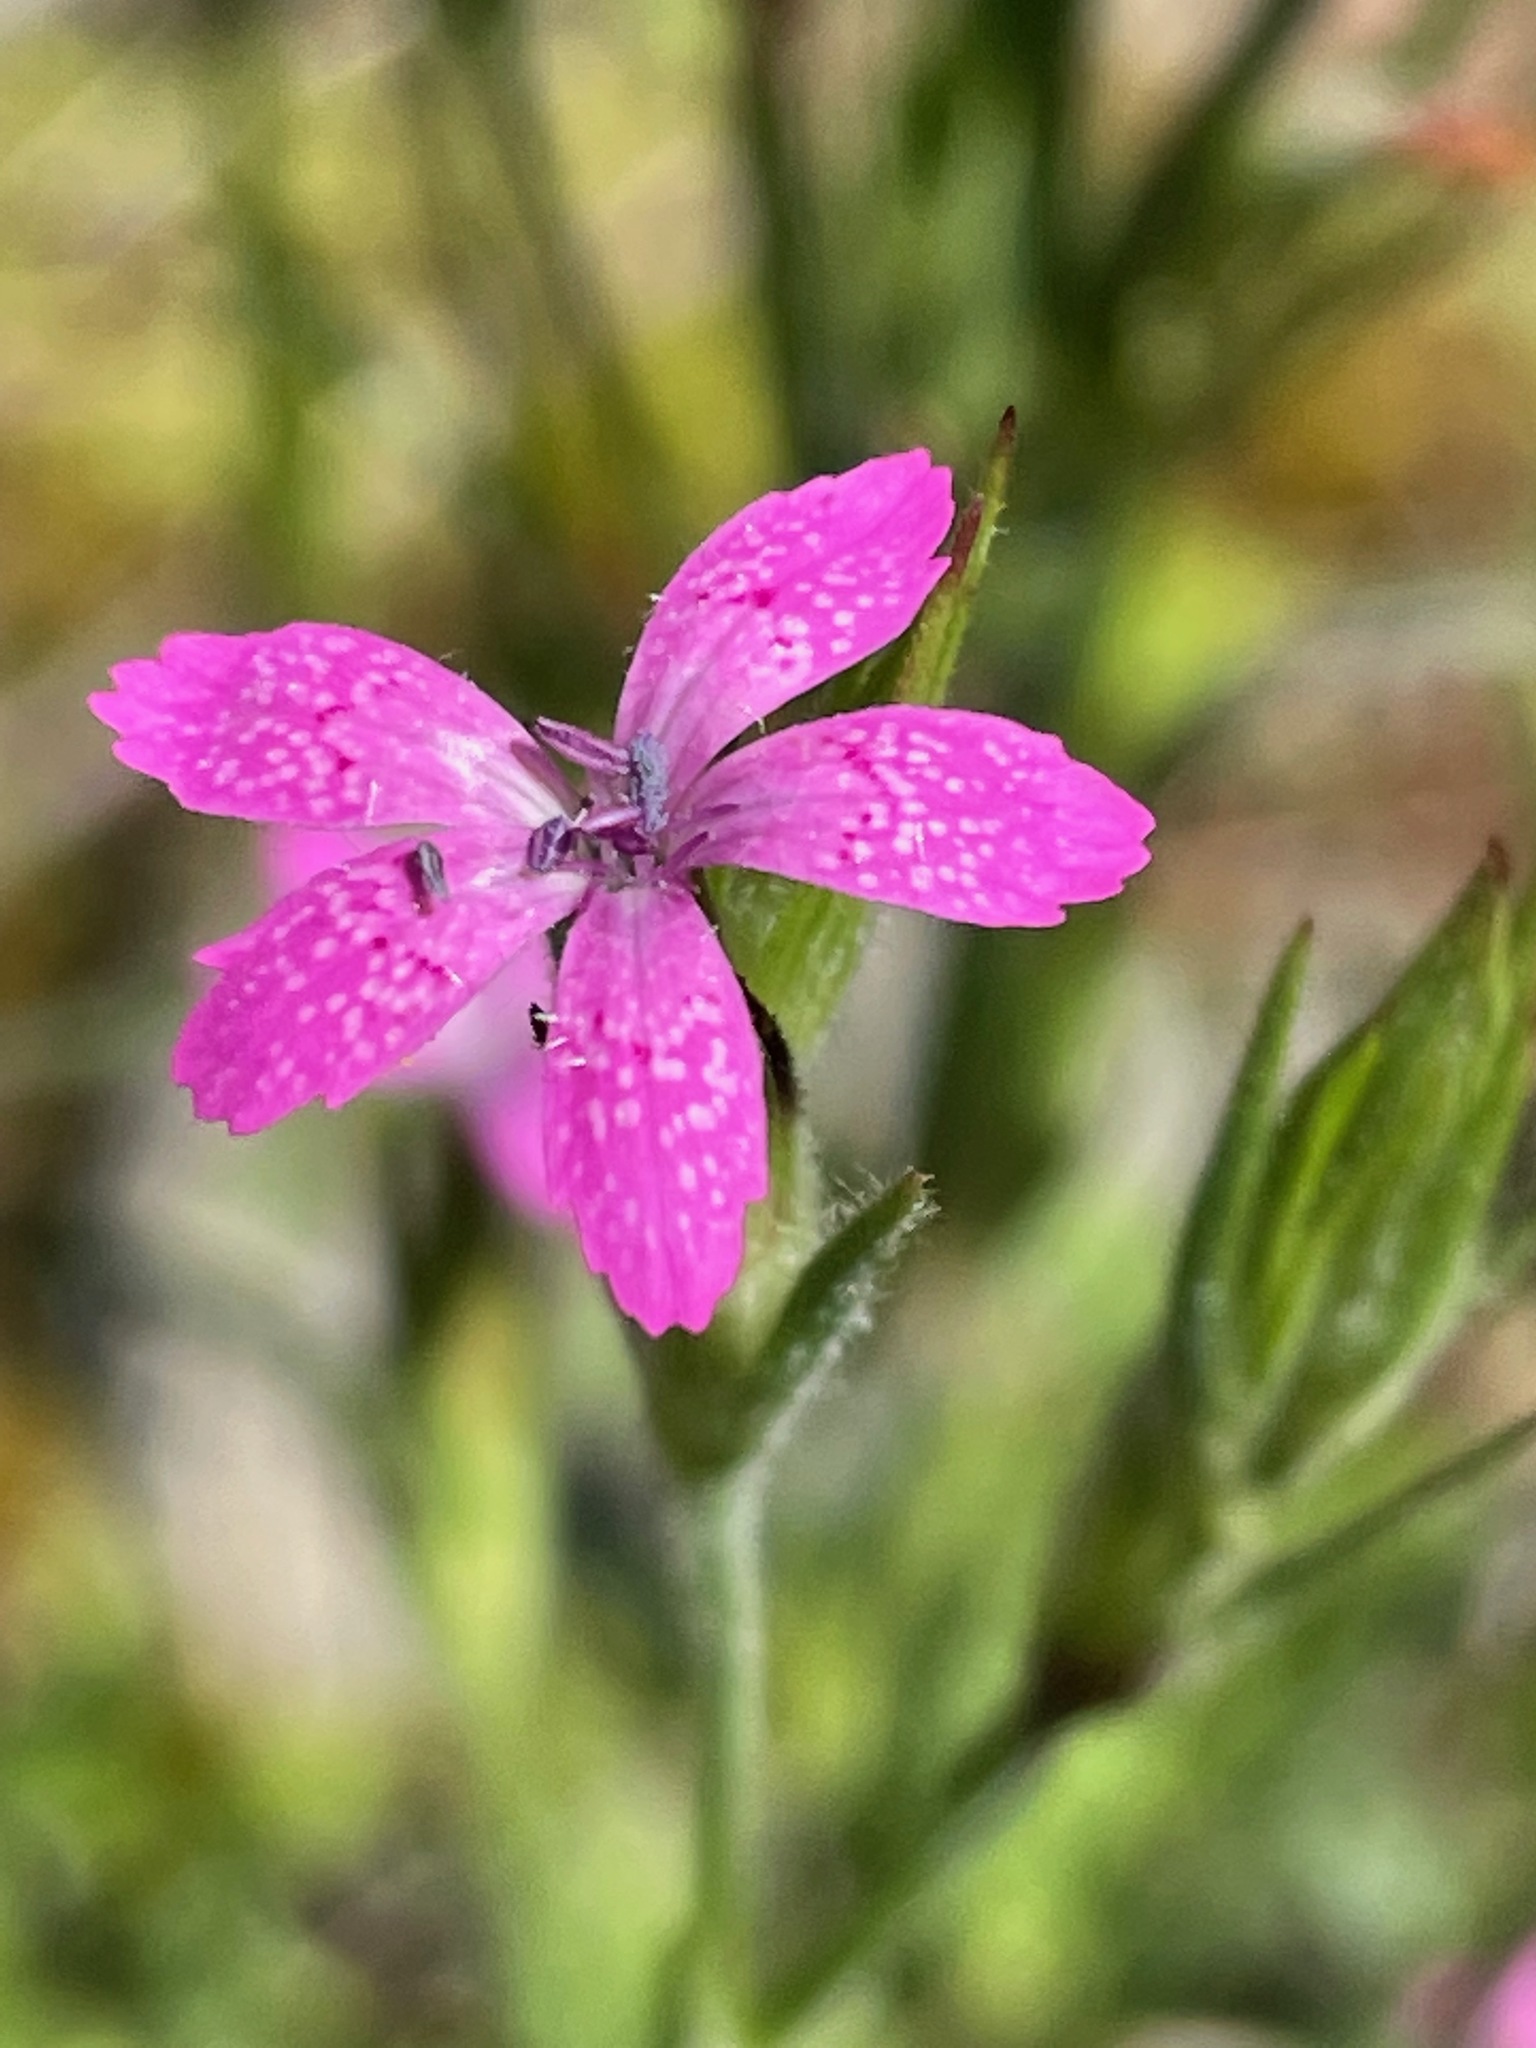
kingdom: Plantae
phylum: Tracheophyta
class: Magnoliopsida
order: Caryophyllales
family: Caryophyllaceae
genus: Dianthus
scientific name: Dianthus armeria
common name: Deptford pink
